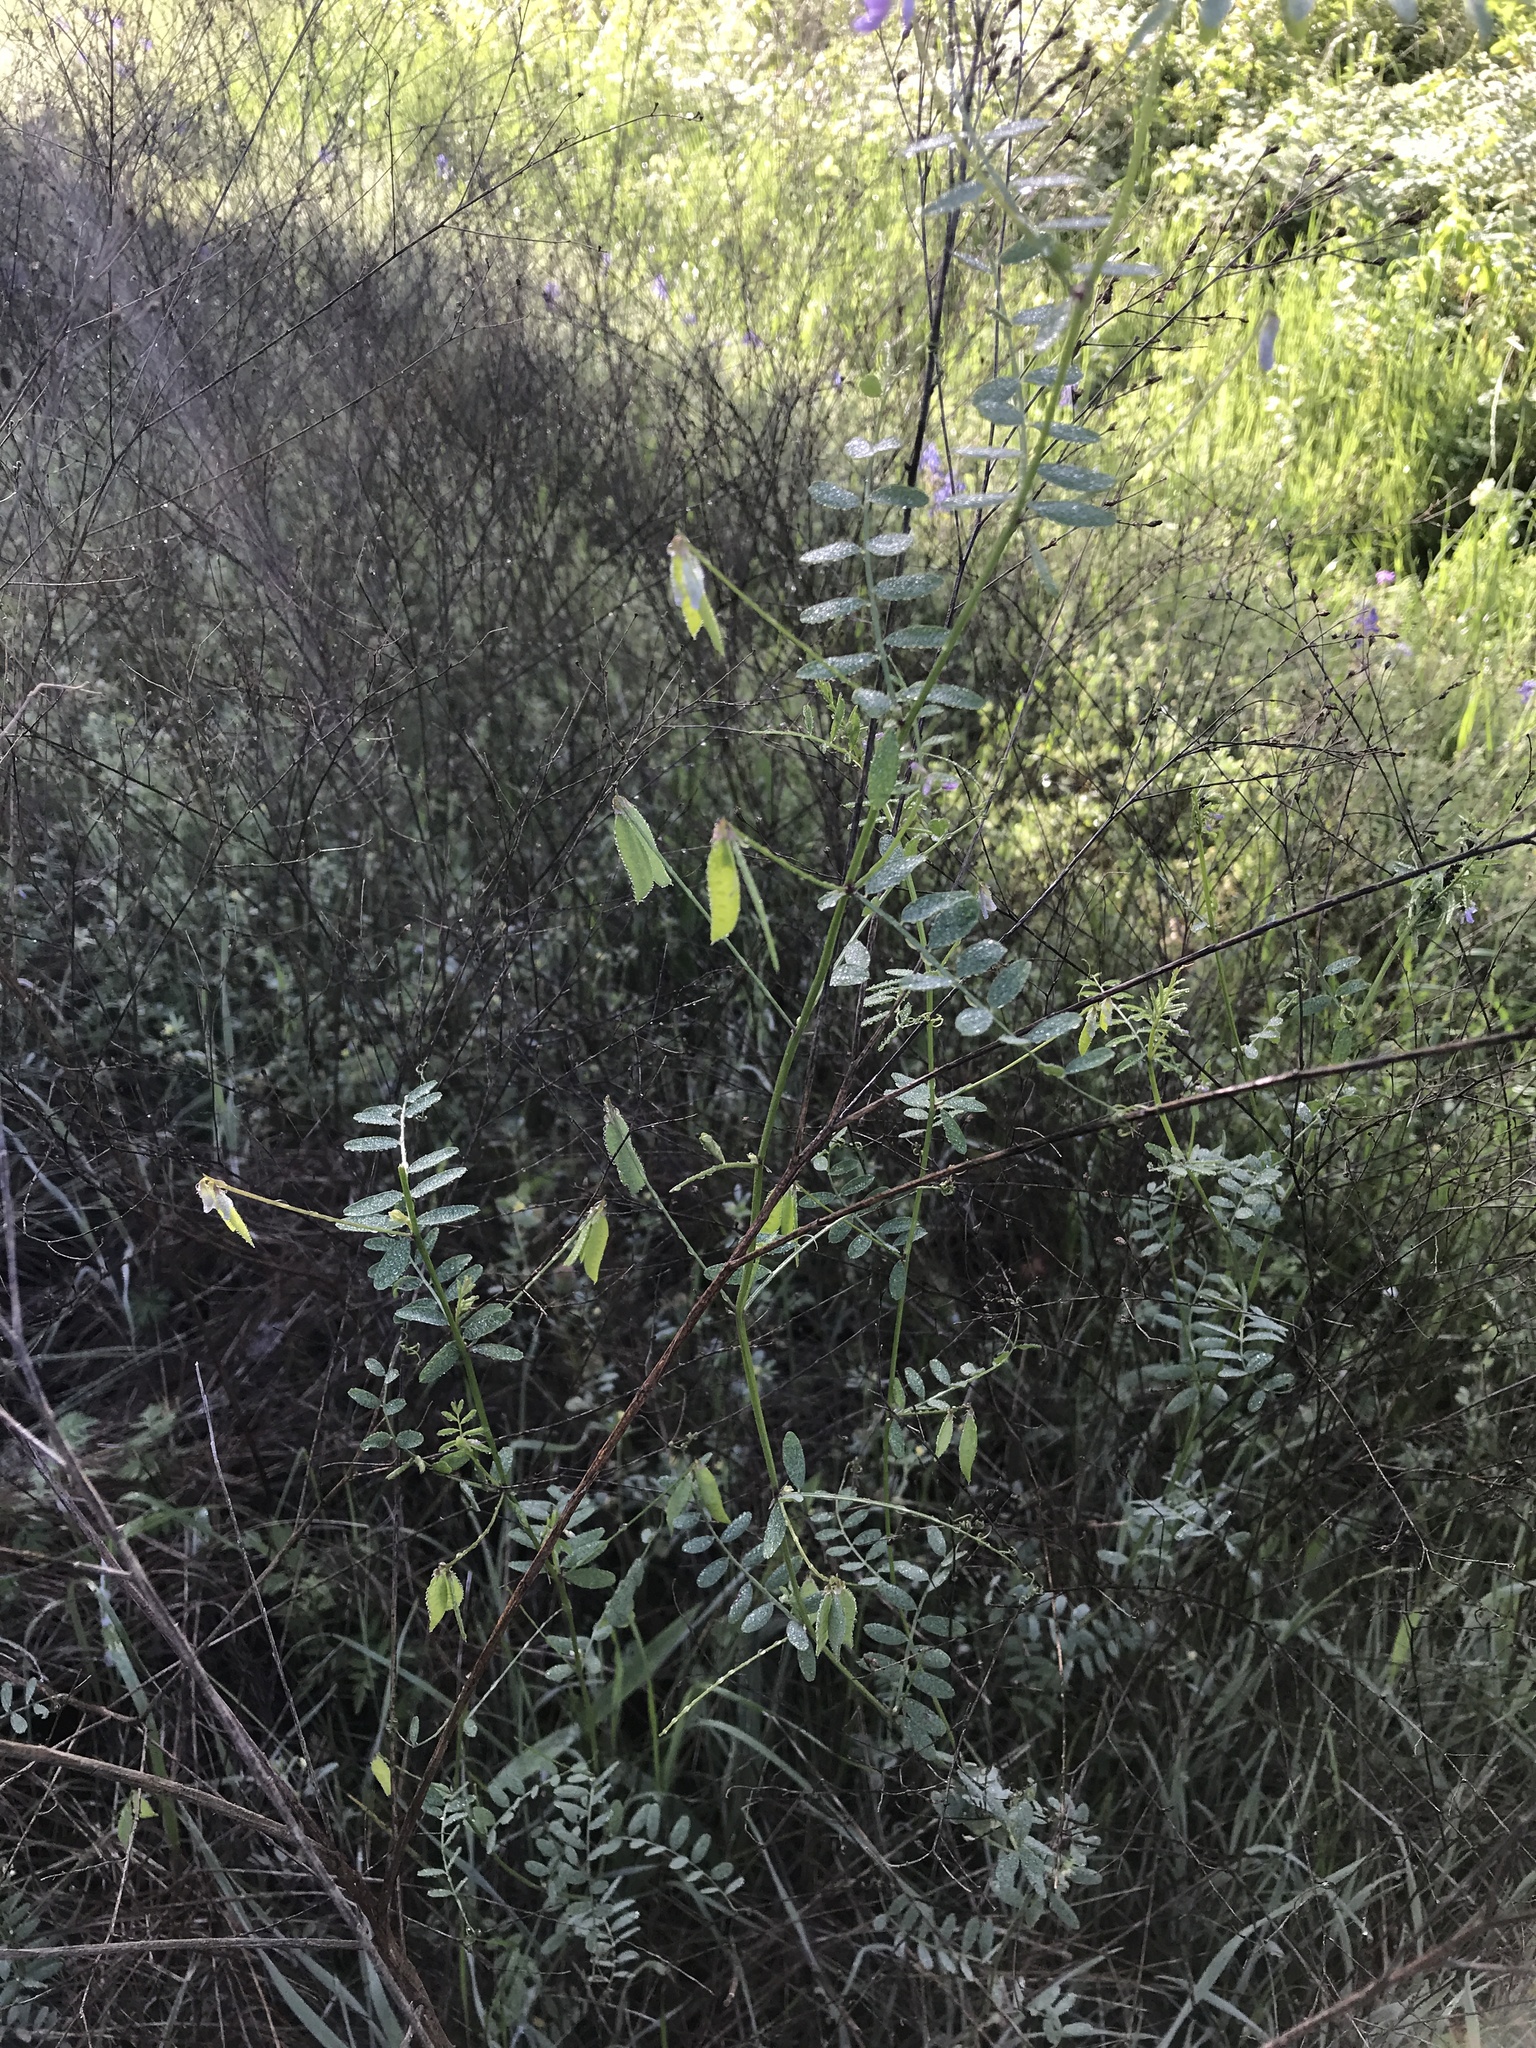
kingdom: Plantae
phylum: Tracheophyta
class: Magnoliopsida
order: Fabales
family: Fabaceae
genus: Vicia
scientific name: Vicia ludoviciana
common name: Louisiana vetch
